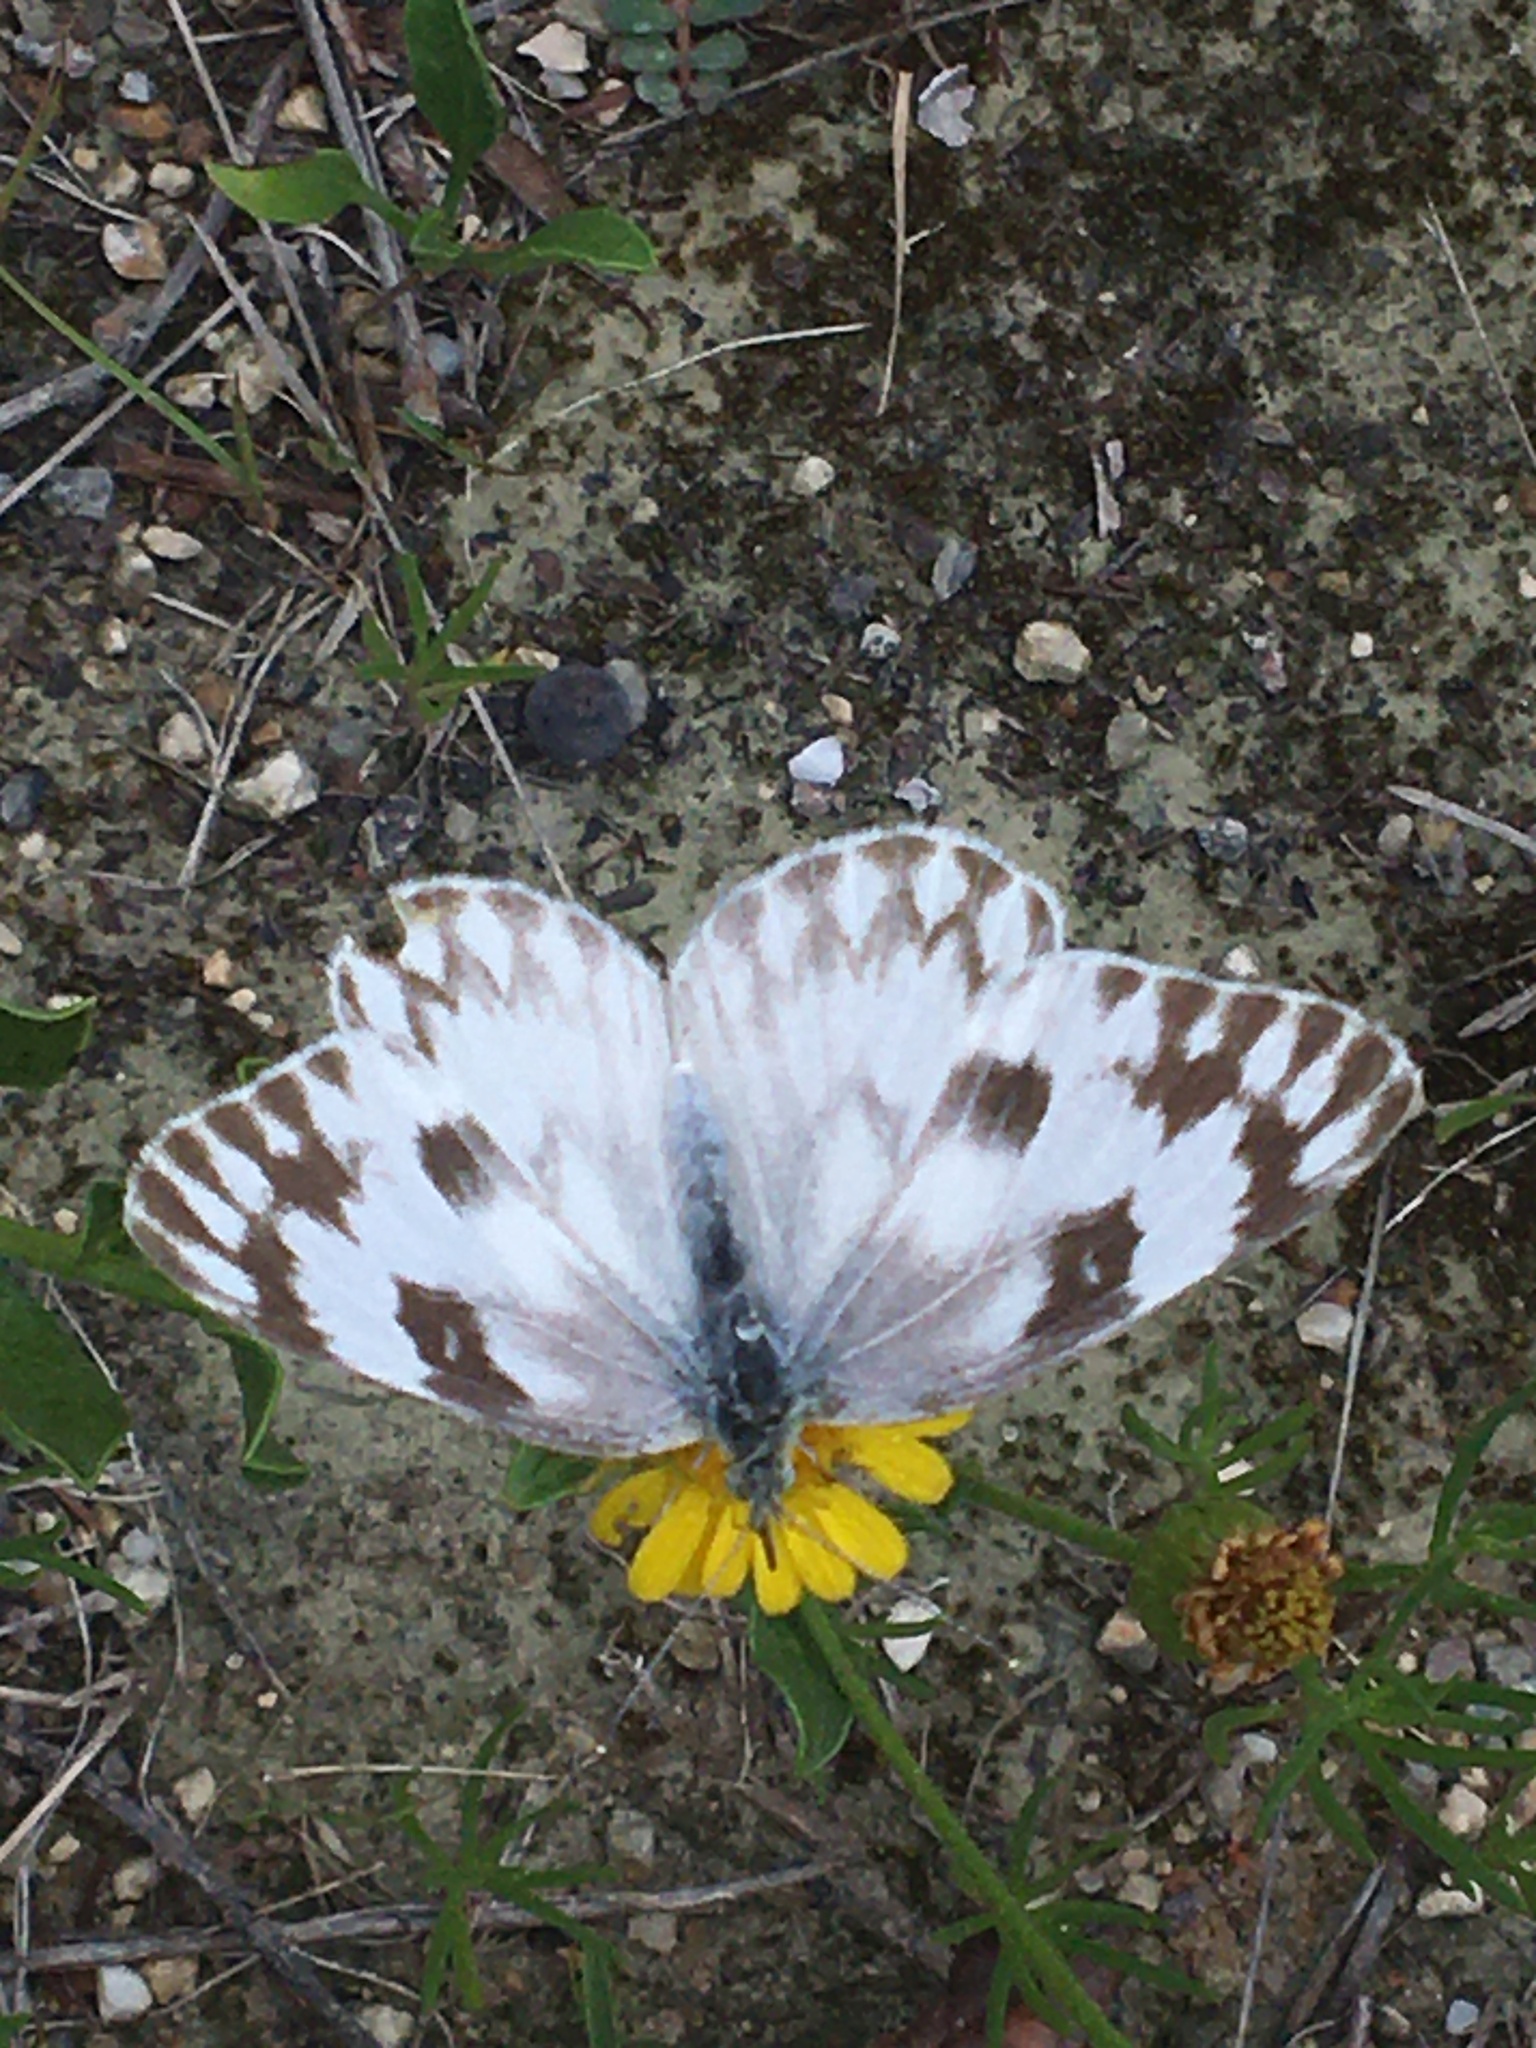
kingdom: Animalia
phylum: Arthropoda
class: Insecta
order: Lepidoptera
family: Pieridae
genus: Pontia
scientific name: Pontia protodice
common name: Checkered white
